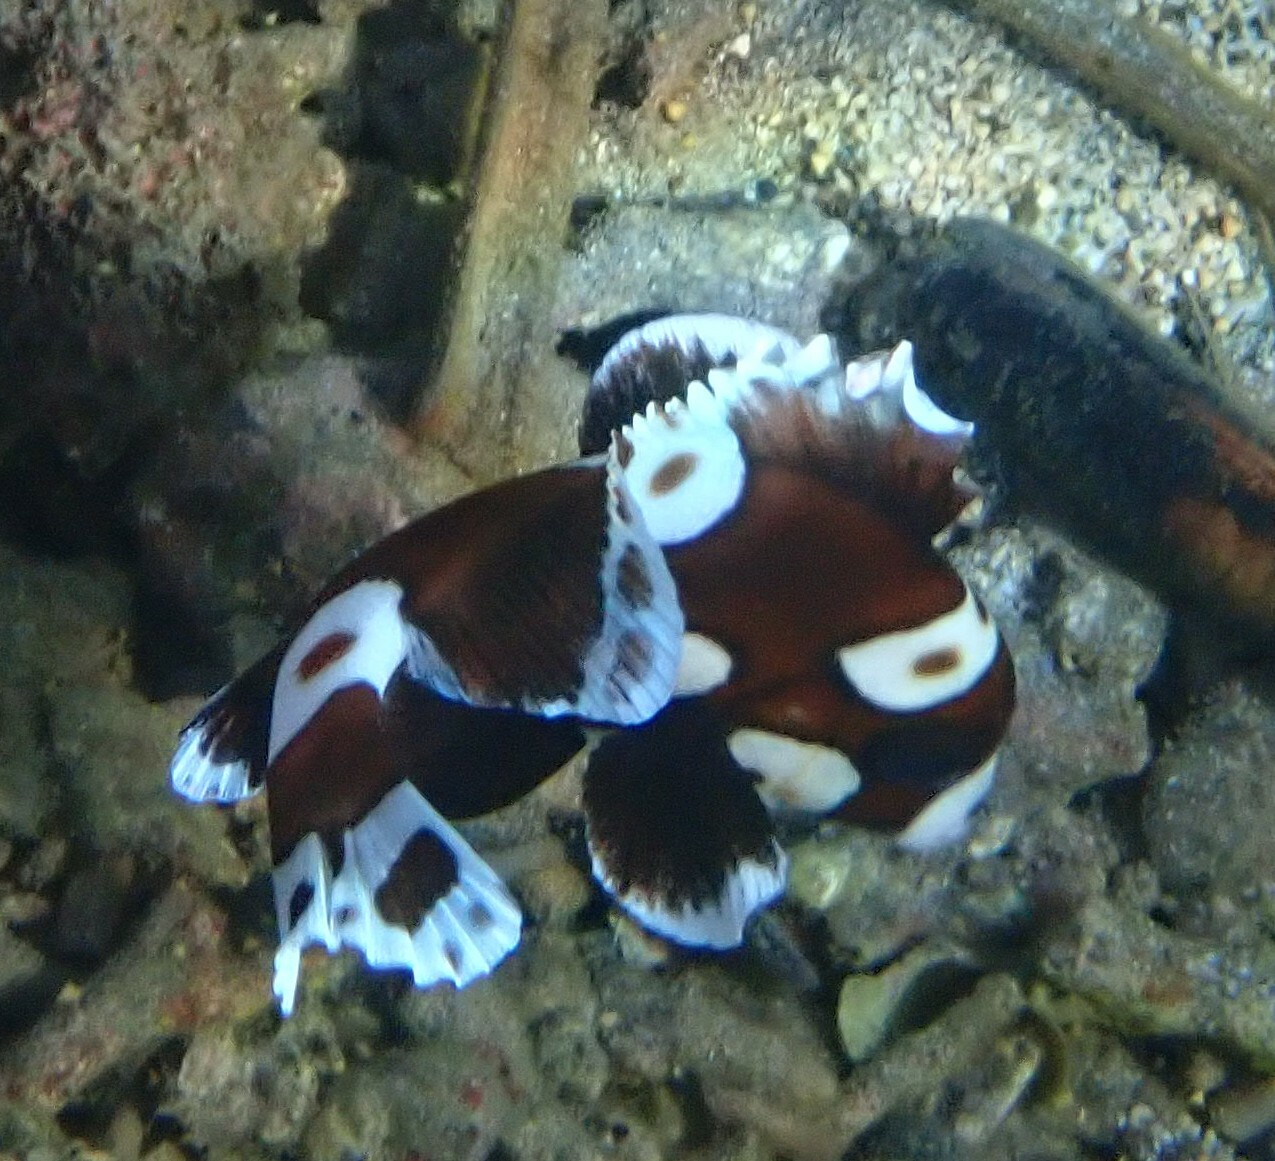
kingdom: Animalia
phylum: Chordata
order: Perciformes
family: Haemulidae
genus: Plectorhinchus
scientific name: Plectorhinchus chaetodonoides
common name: Harlequin sweetlips
